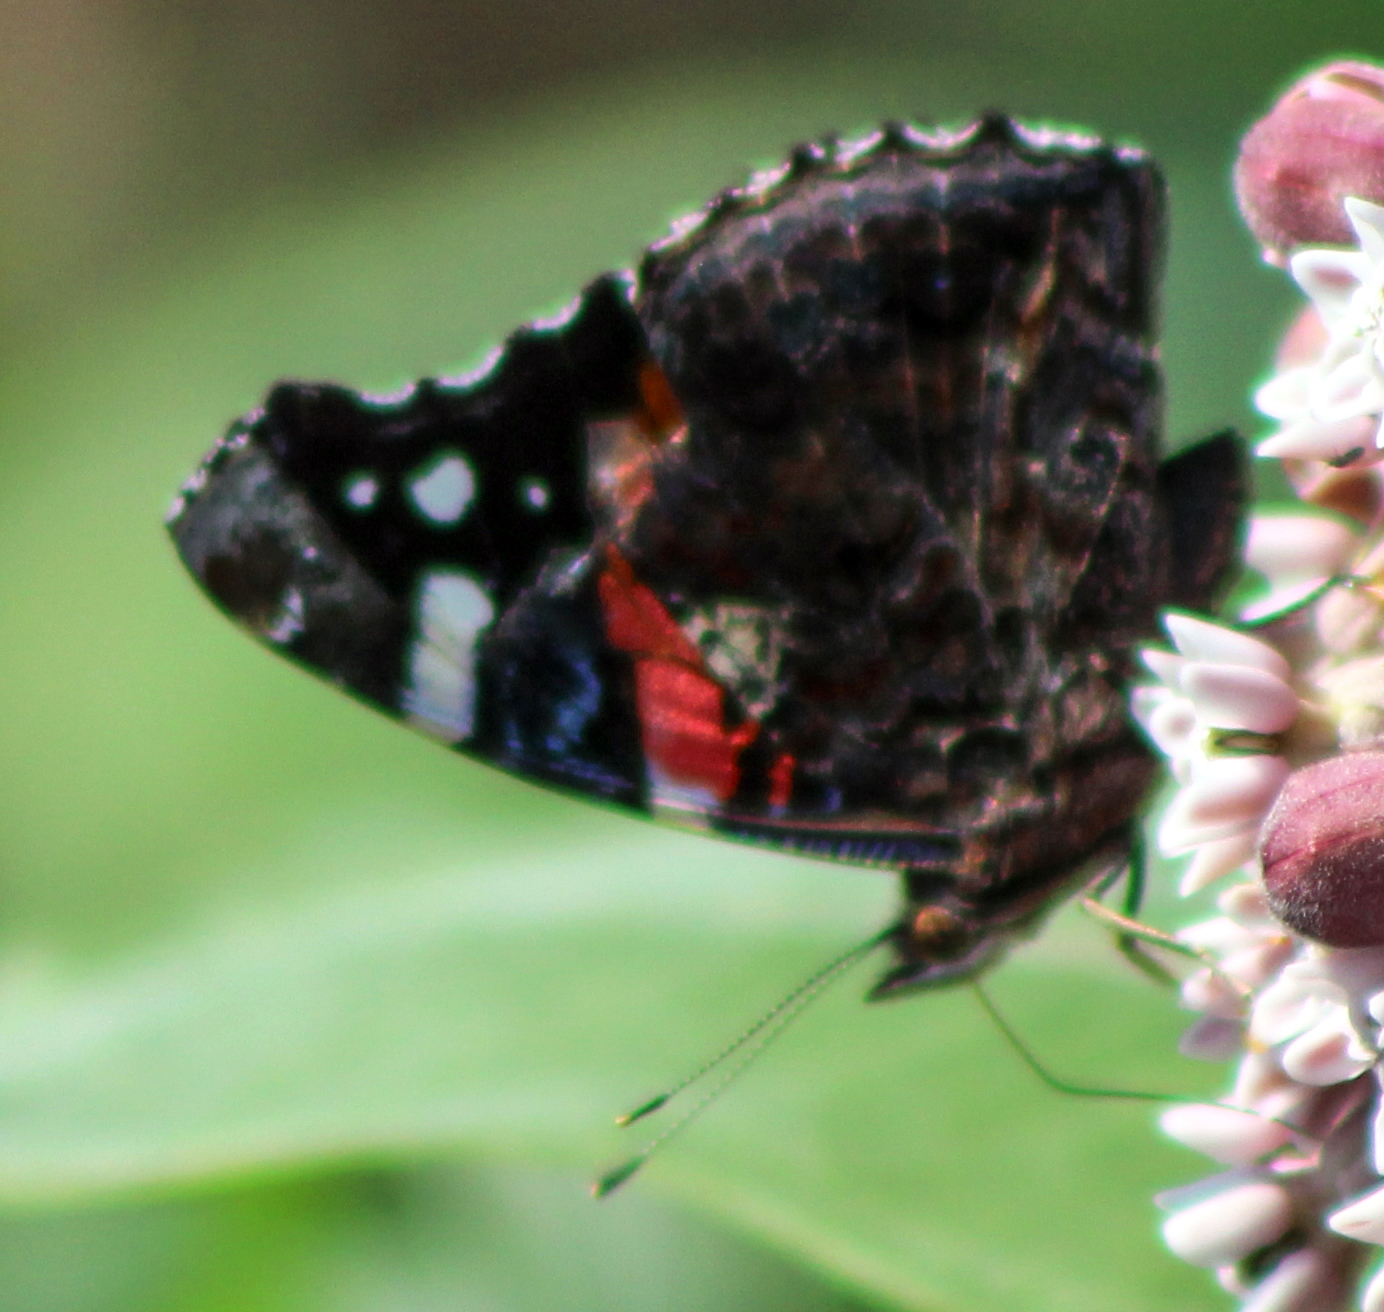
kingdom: Animalia
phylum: Arthropoda
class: Insecta
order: Lepidoptera
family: Nymphalidae
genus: Vanessa
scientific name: Vanessa atalanta
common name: Red admiral
